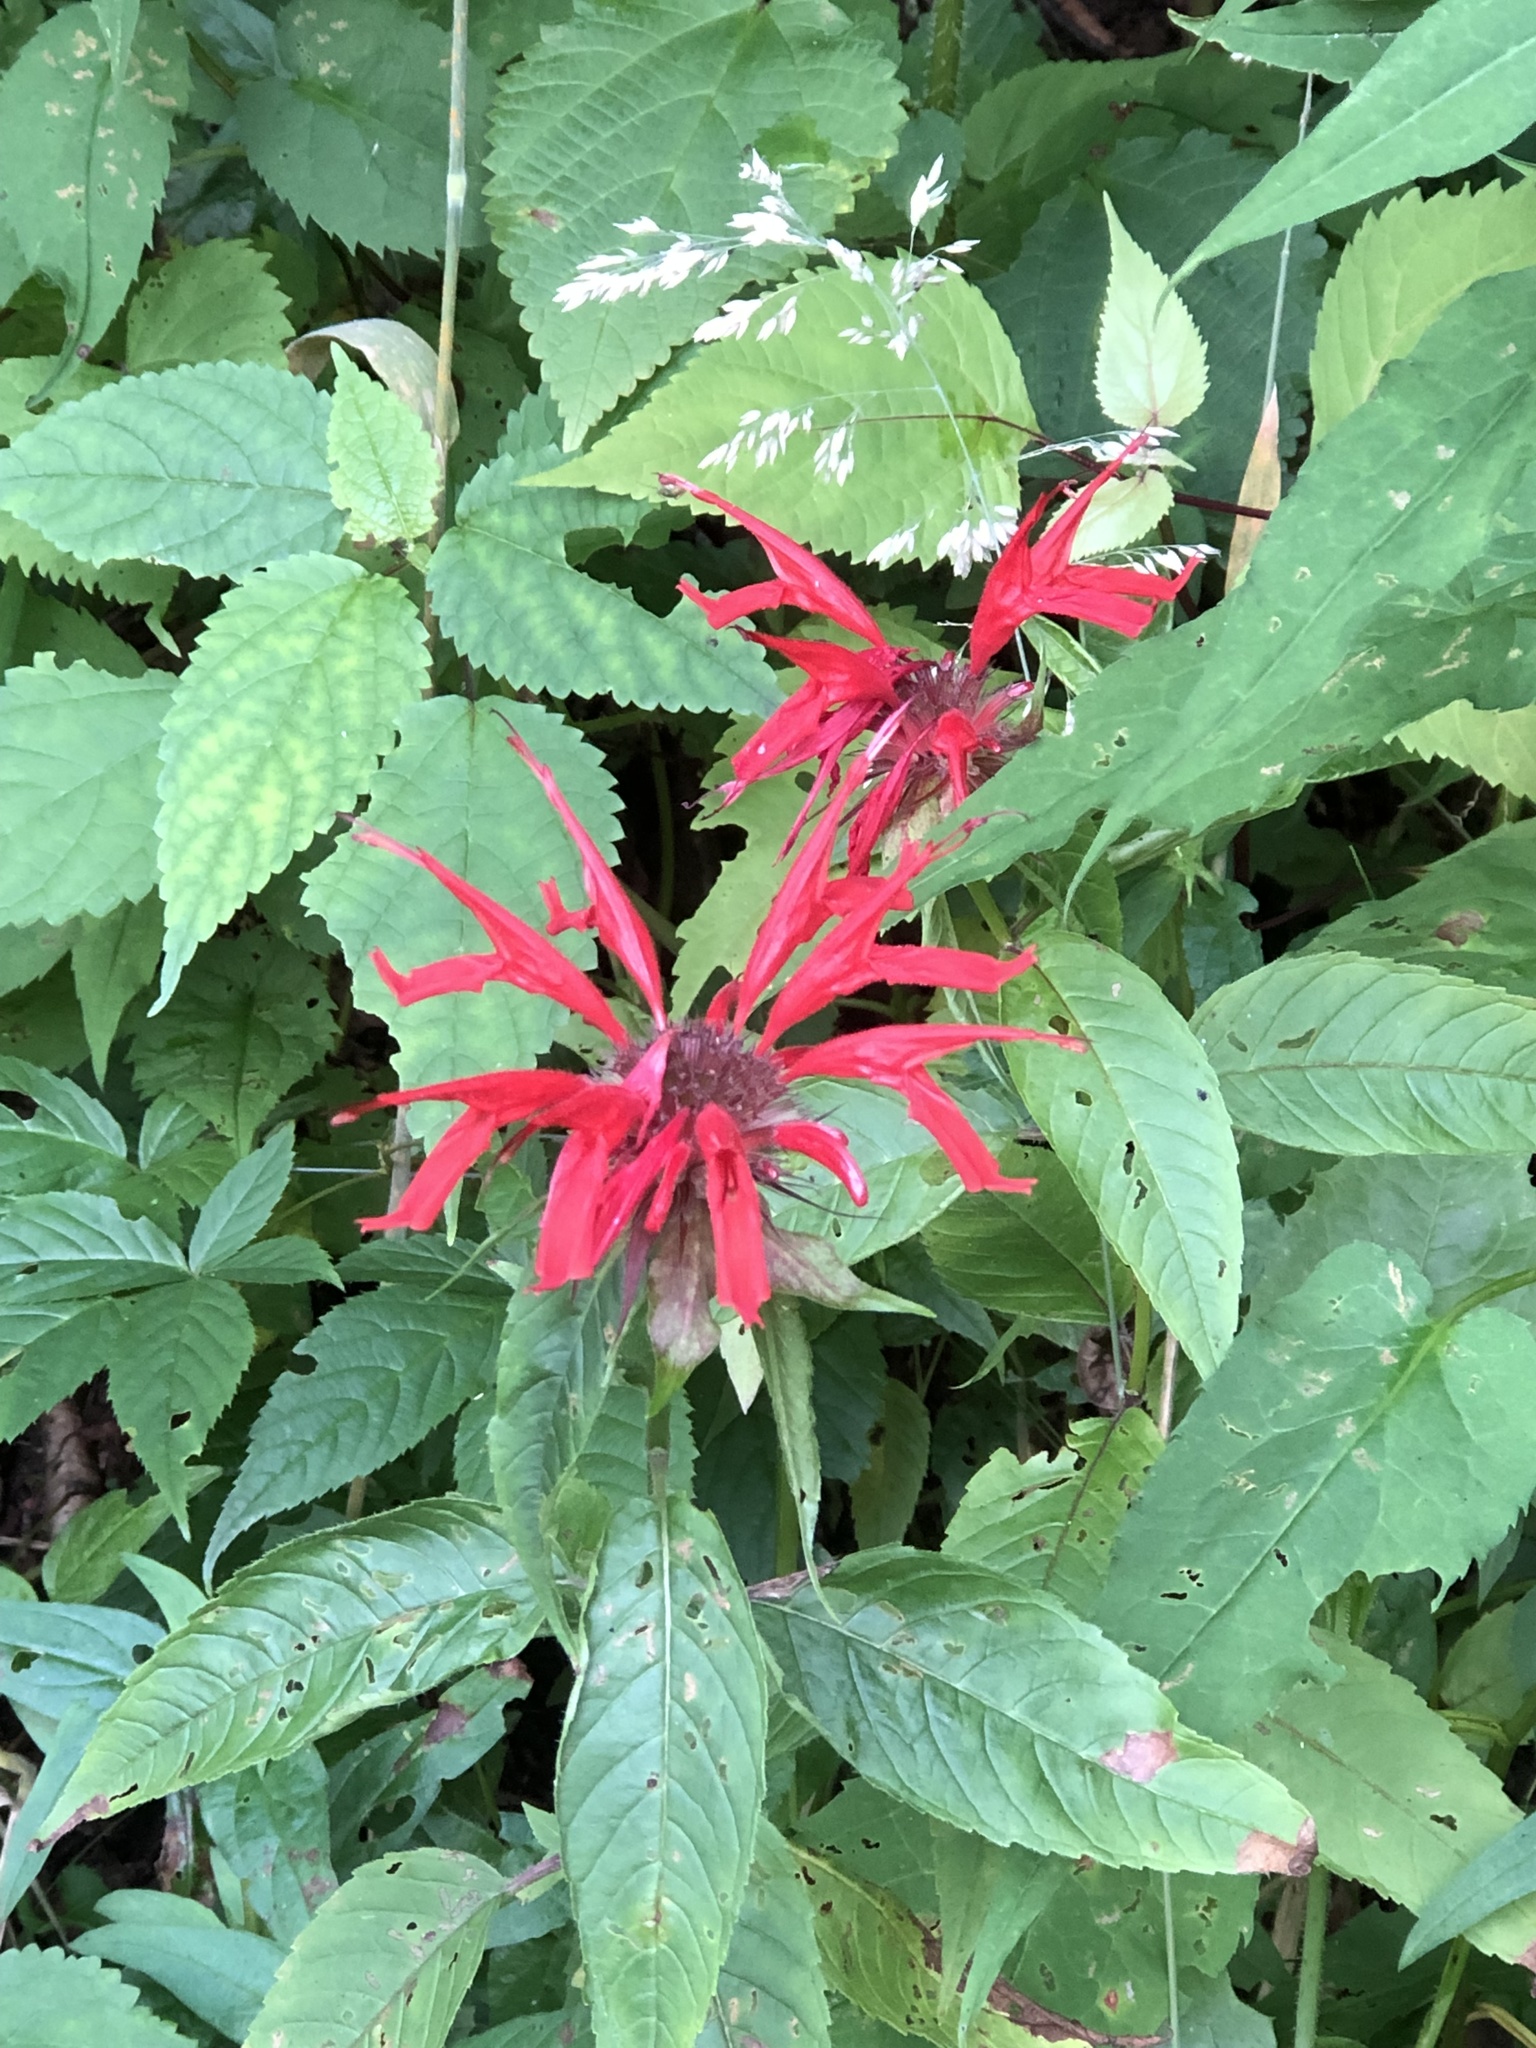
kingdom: Plantae
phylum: Tracheophyta
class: Magnoliopsida
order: Lamiales
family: Lamiaceae
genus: Monarda
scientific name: Monarda didyma
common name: Beebalm
